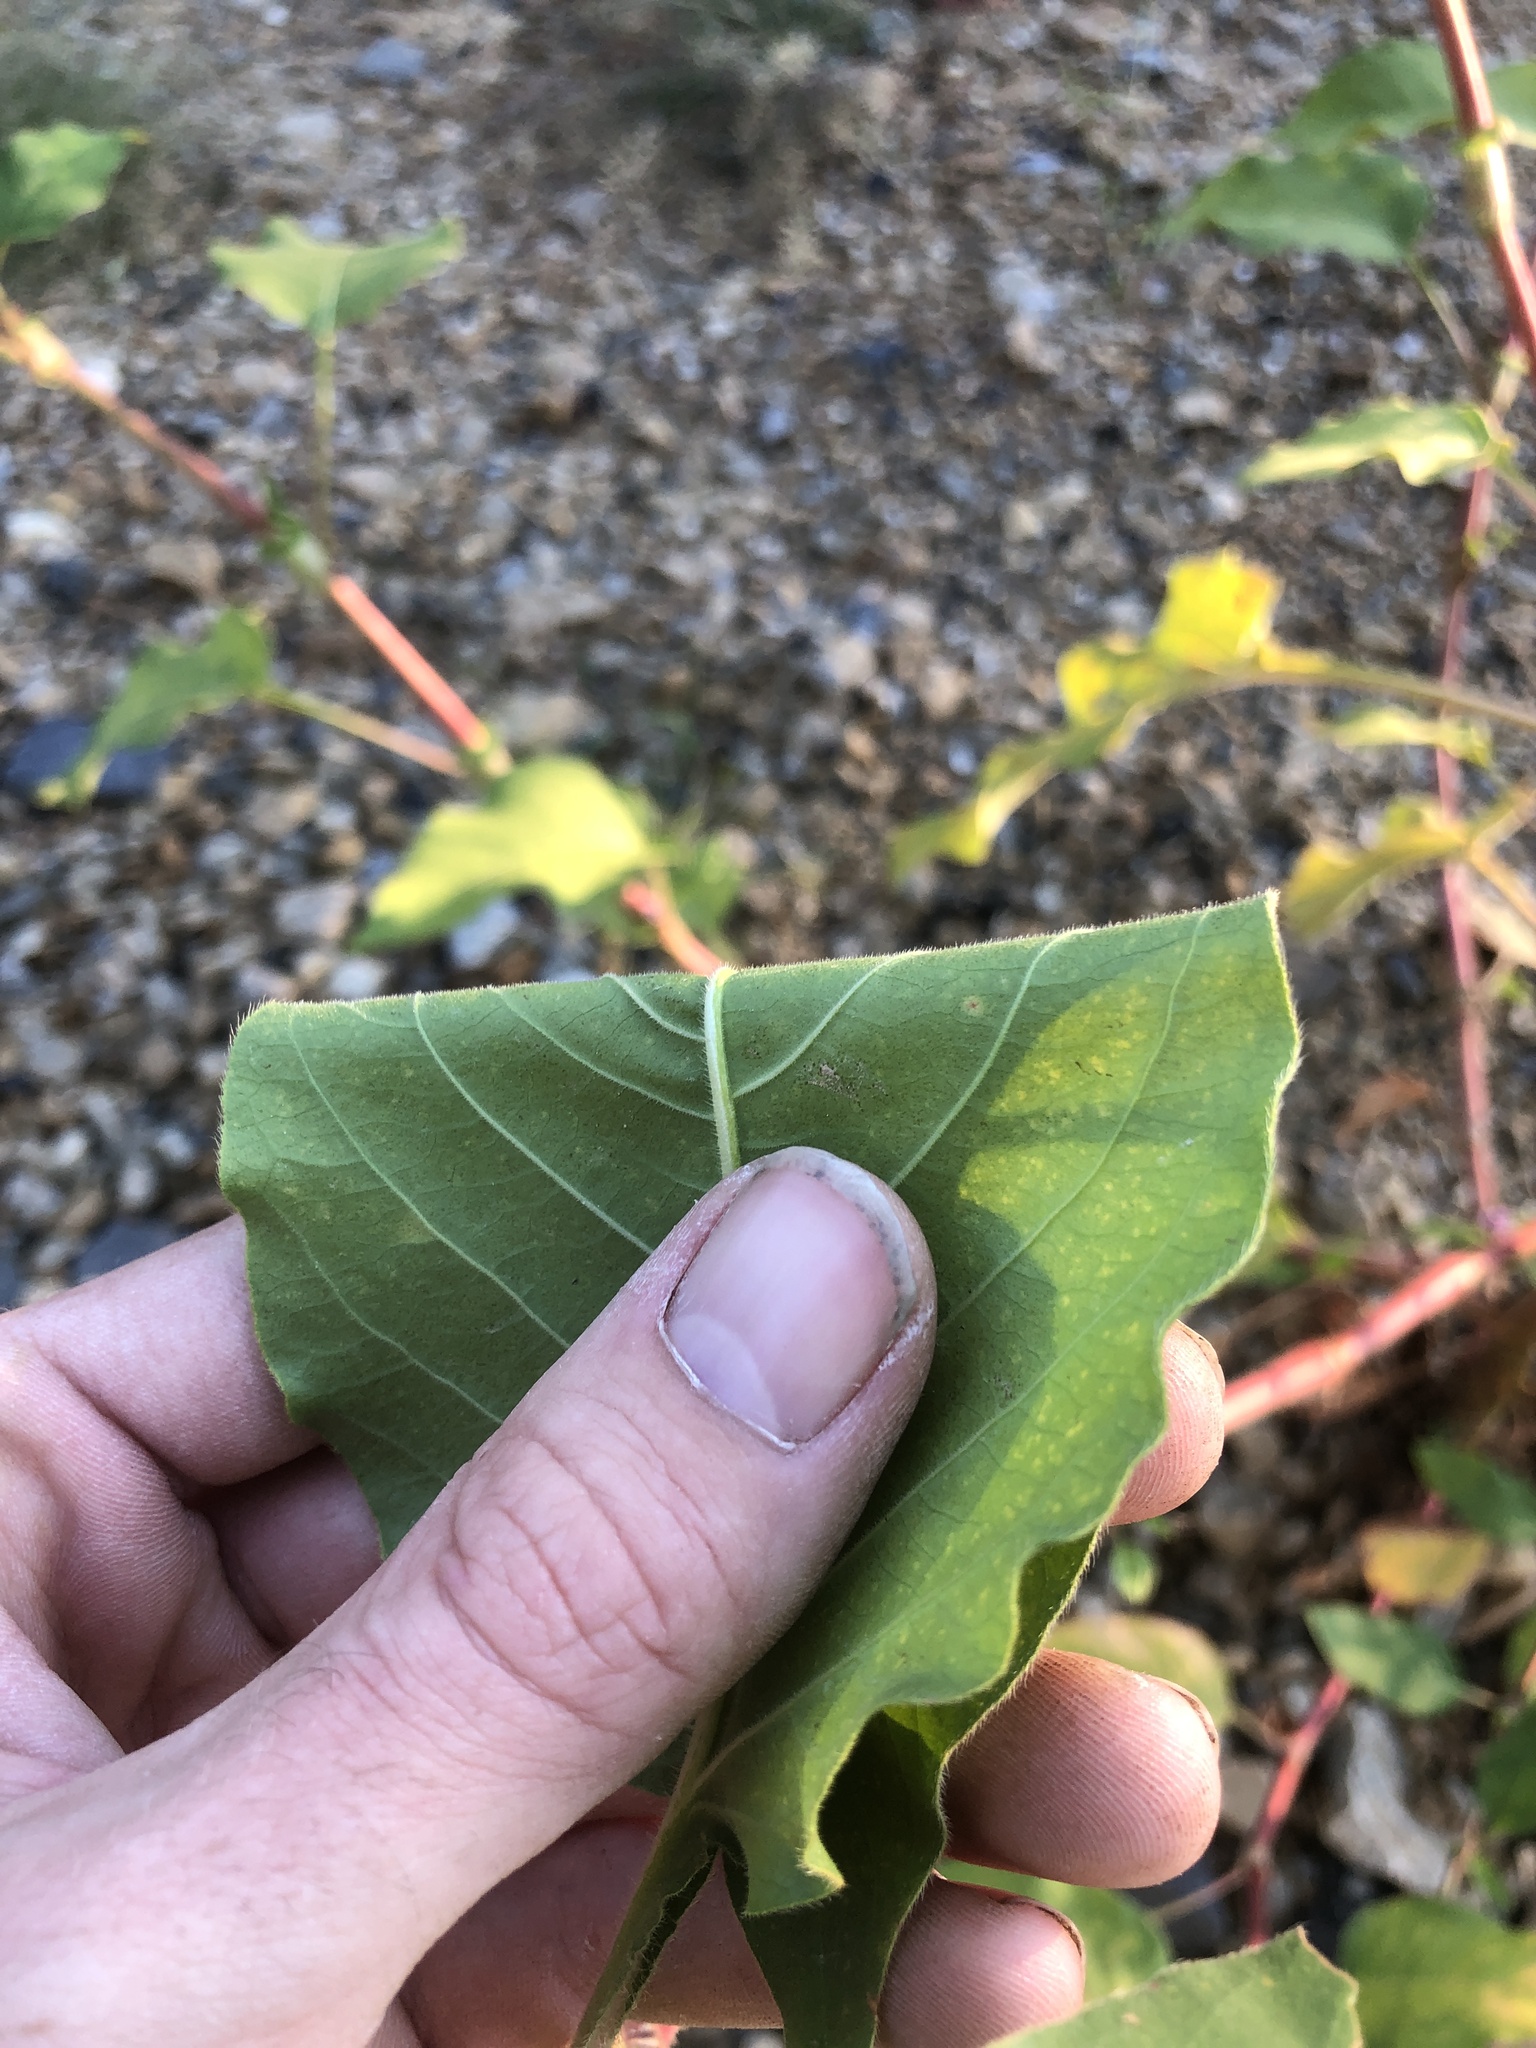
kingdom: Plantae
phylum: Tracheophyta
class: Magnoliopsida
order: Caryophyllales
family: Polygonaceae
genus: Persicaria
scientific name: Persicaria orientalis
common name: Kiss-me-over-the-garden-gate
